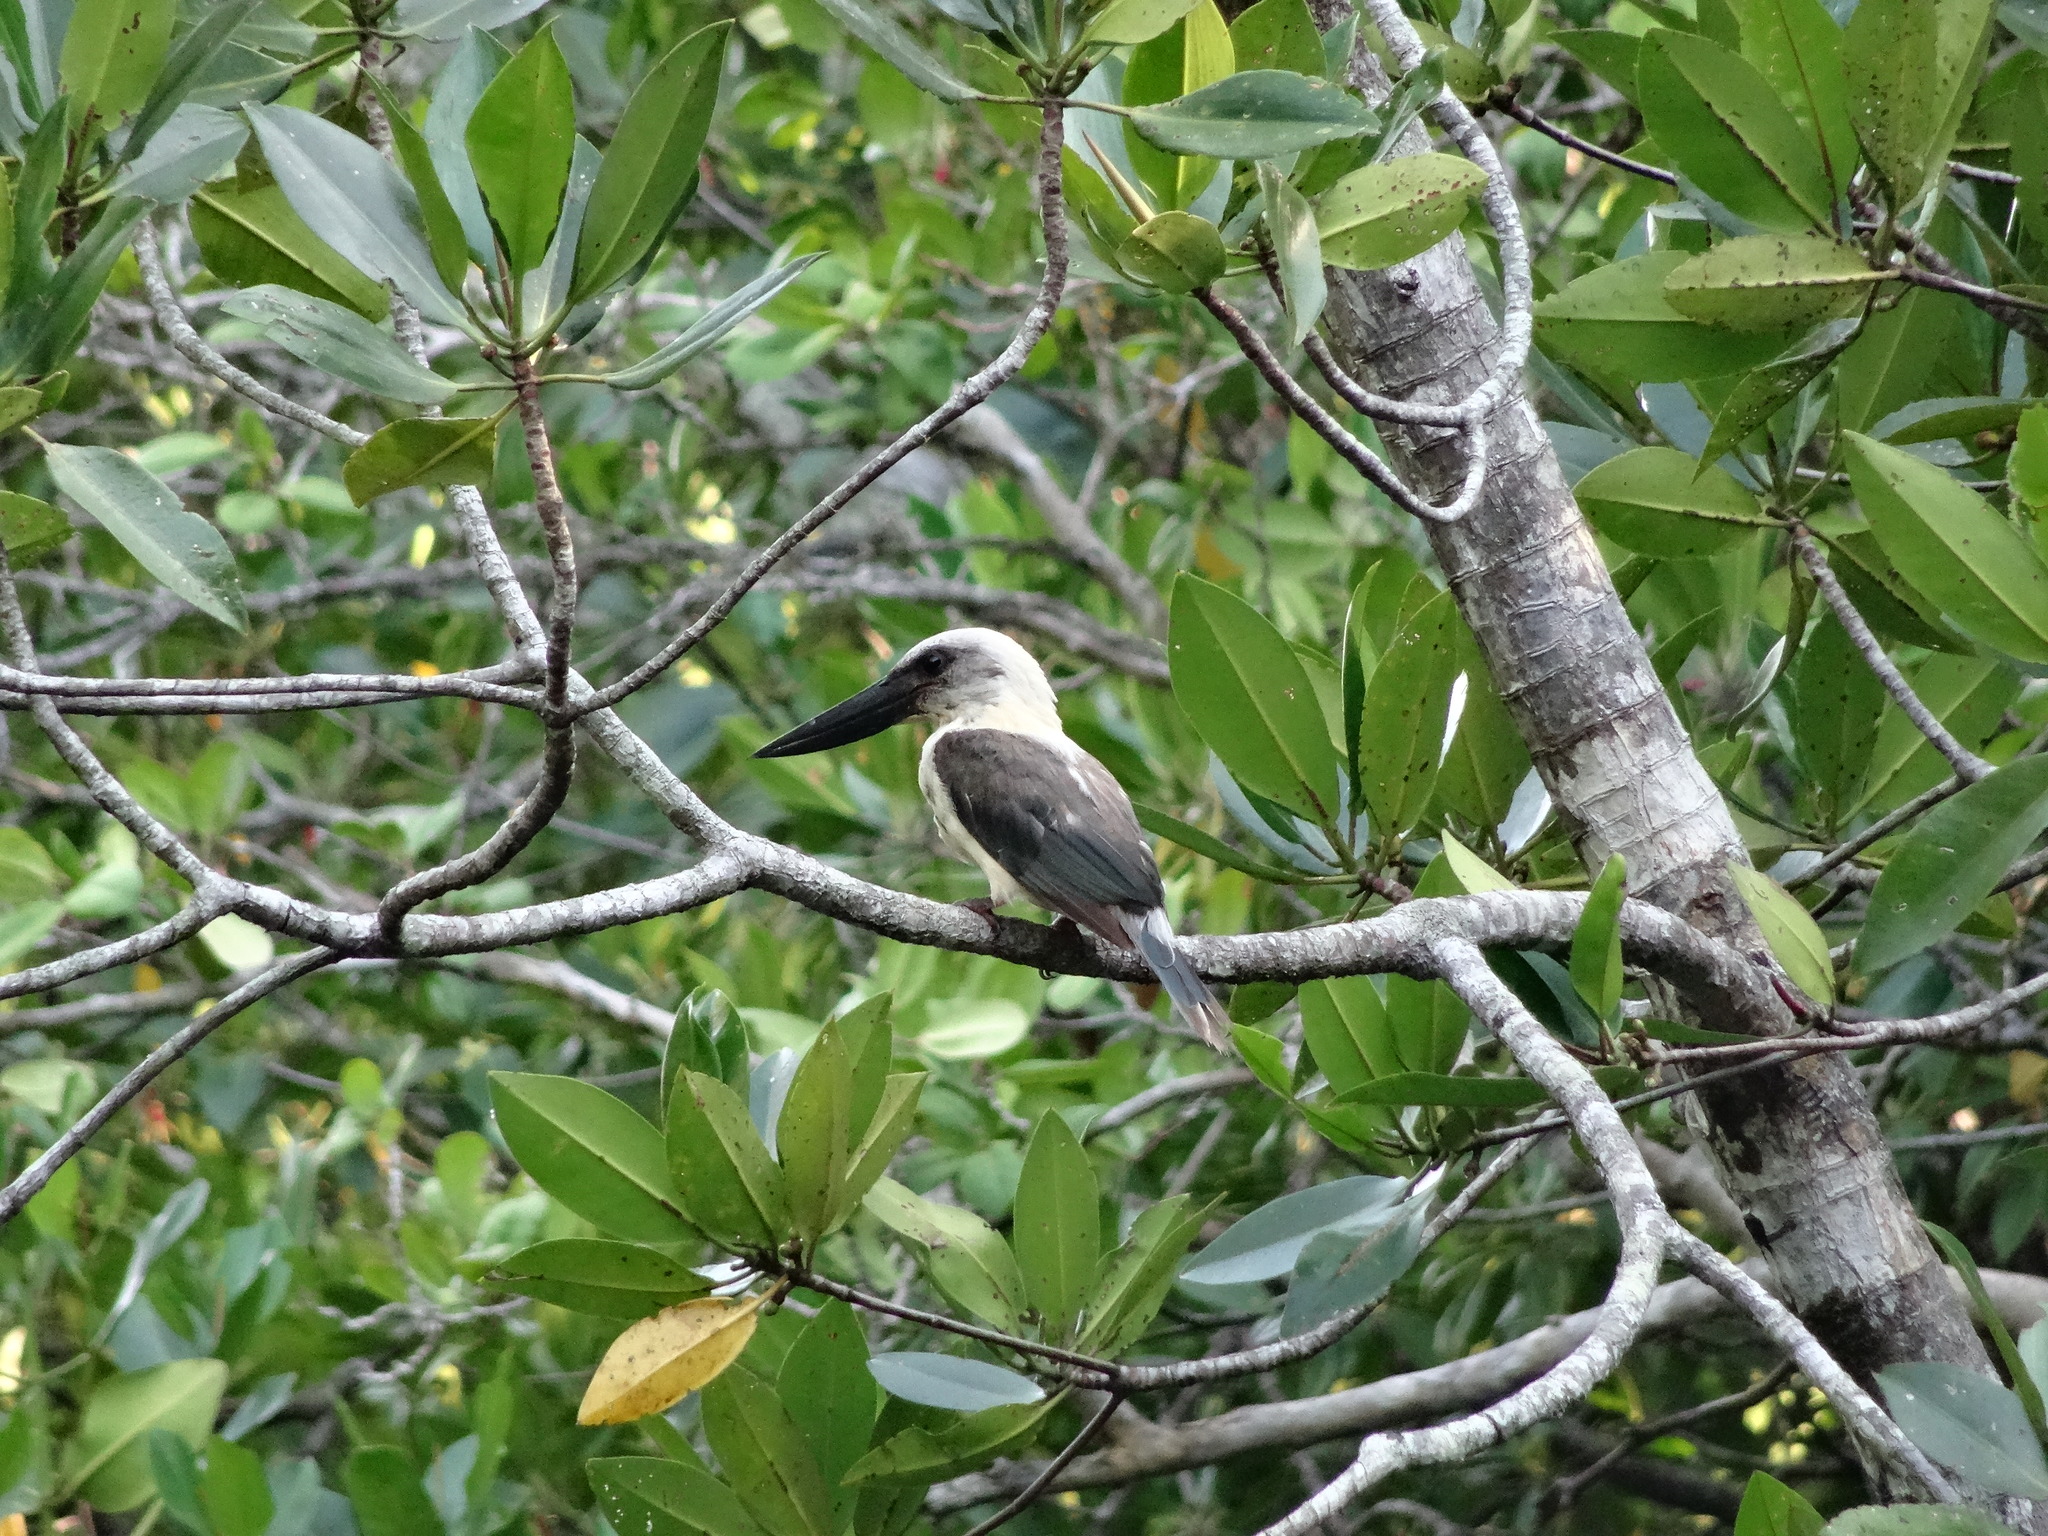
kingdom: Animalia
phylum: Chordata
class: Aves
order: Coraciiformes
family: Alcedinidae
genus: Pelargopsis
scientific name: Pelargopsis melanorhyncha
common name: Great-billed kingfisher
